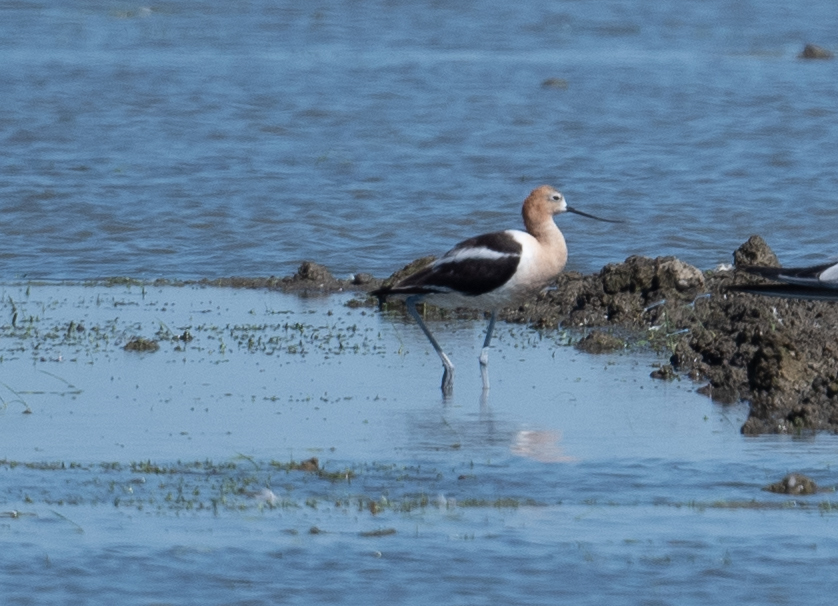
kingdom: Animalia
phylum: Chordata
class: Aves
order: Charadriiformes
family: Recurvirostridae
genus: Recurvirostra
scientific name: Recurvirostra americana
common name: American avocet
